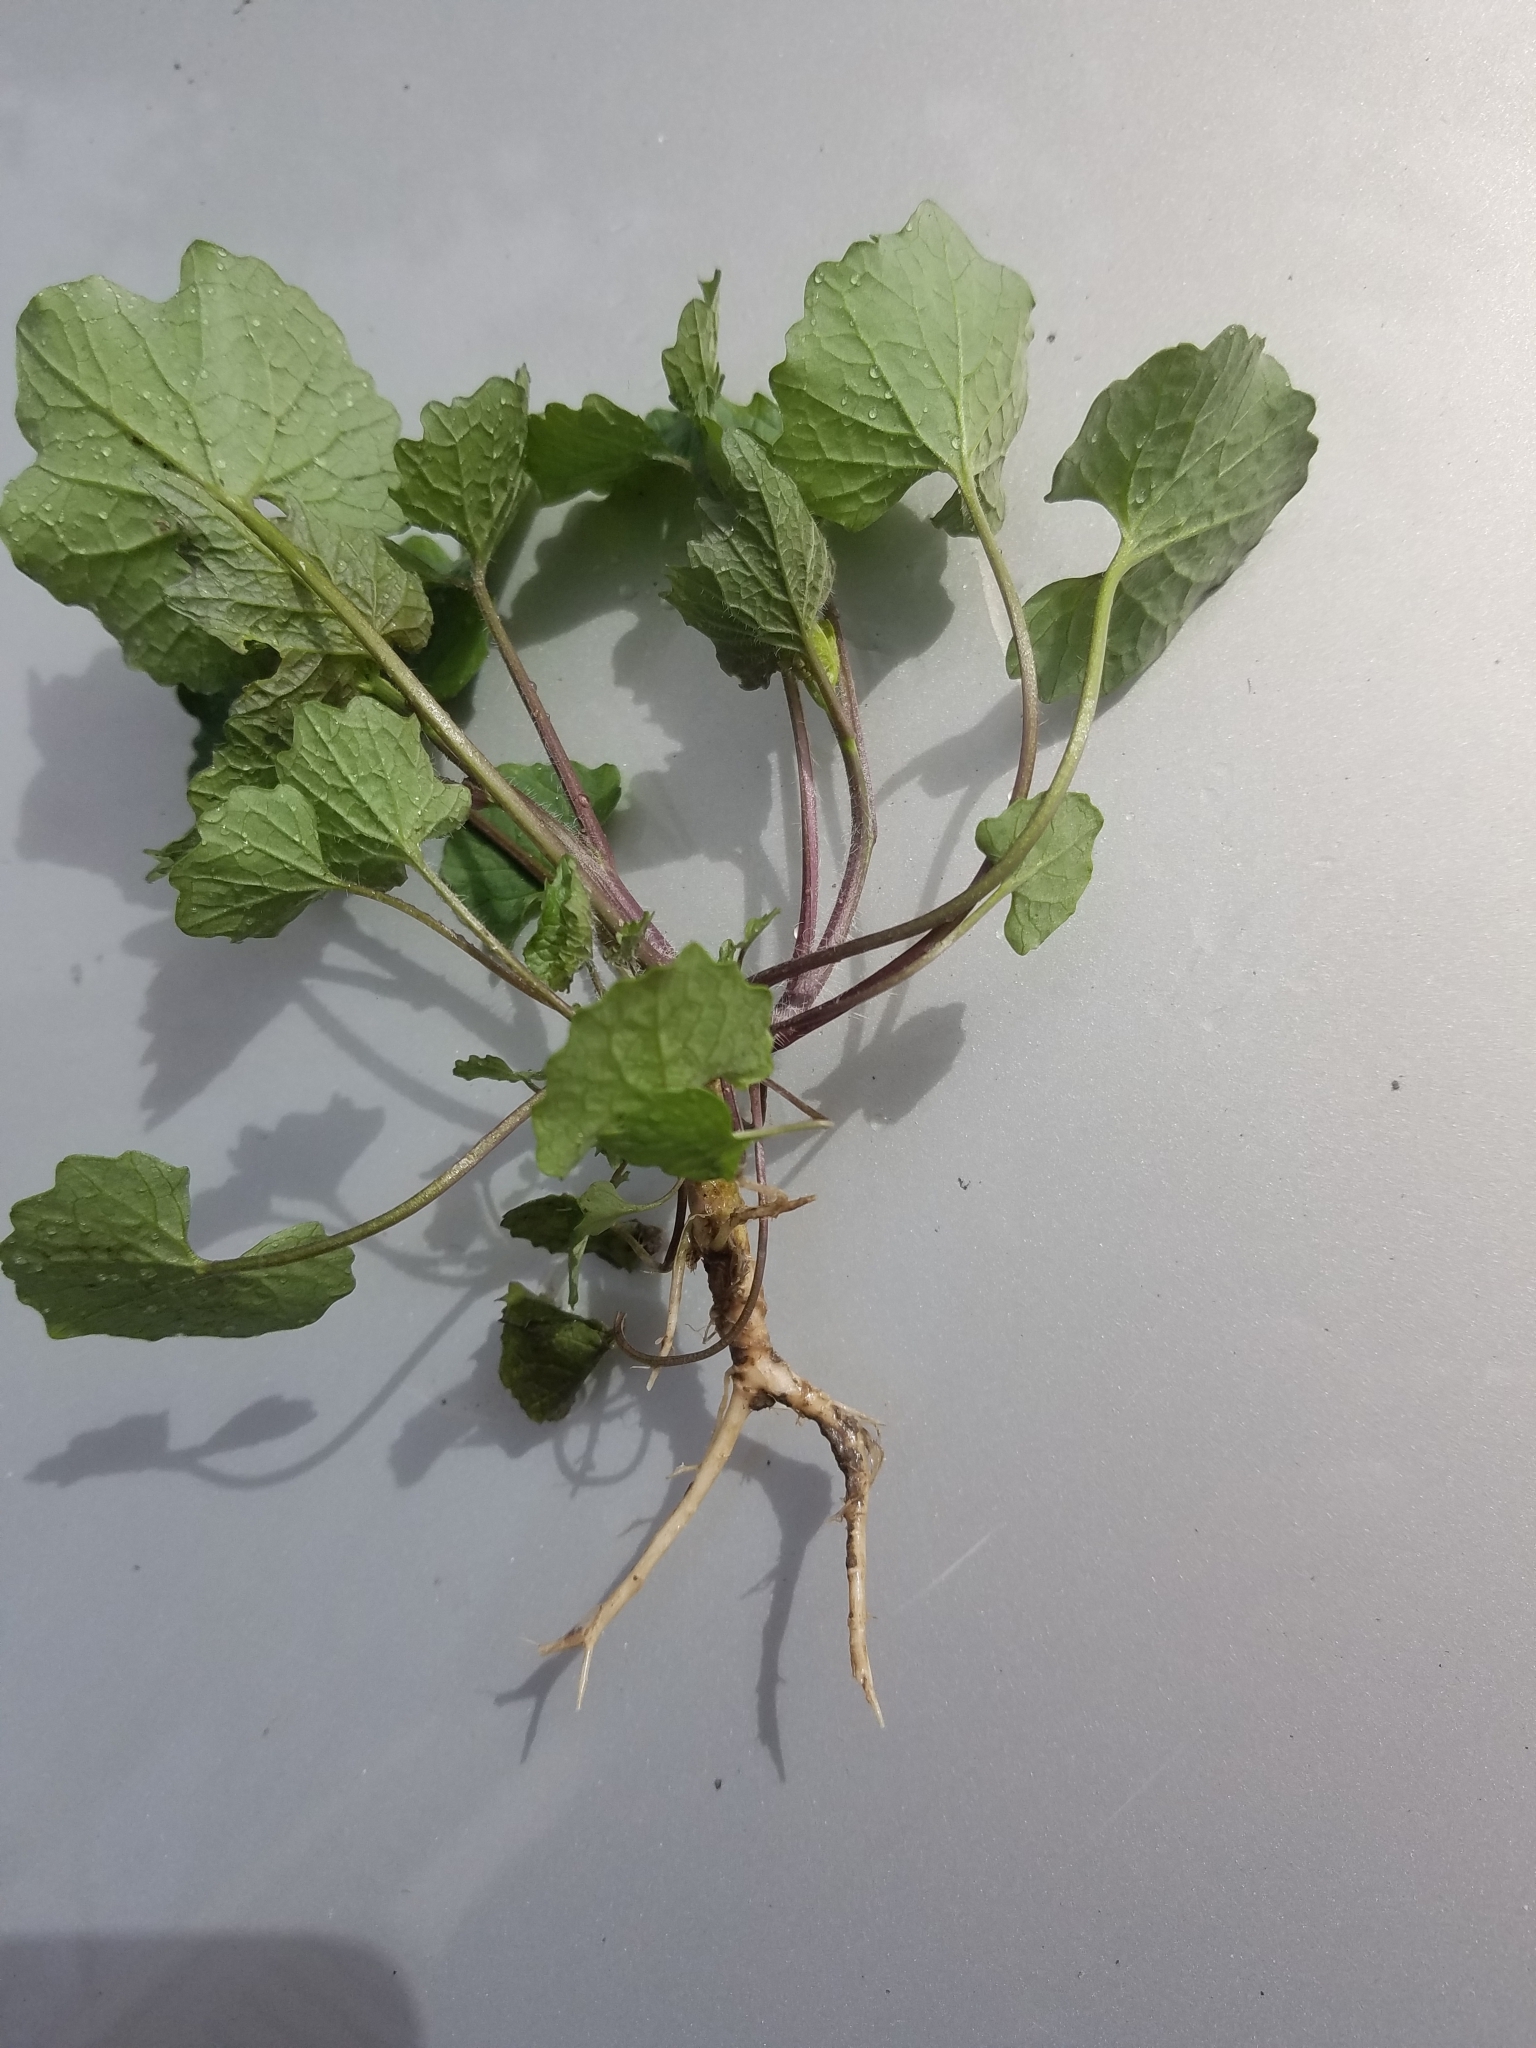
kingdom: Plantae
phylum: Tracheophyta
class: Magnoliopsida
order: Brassicales
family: Brassicaceae
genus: Alliaria
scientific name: Alliaria petiolata
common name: Garlic mustard
